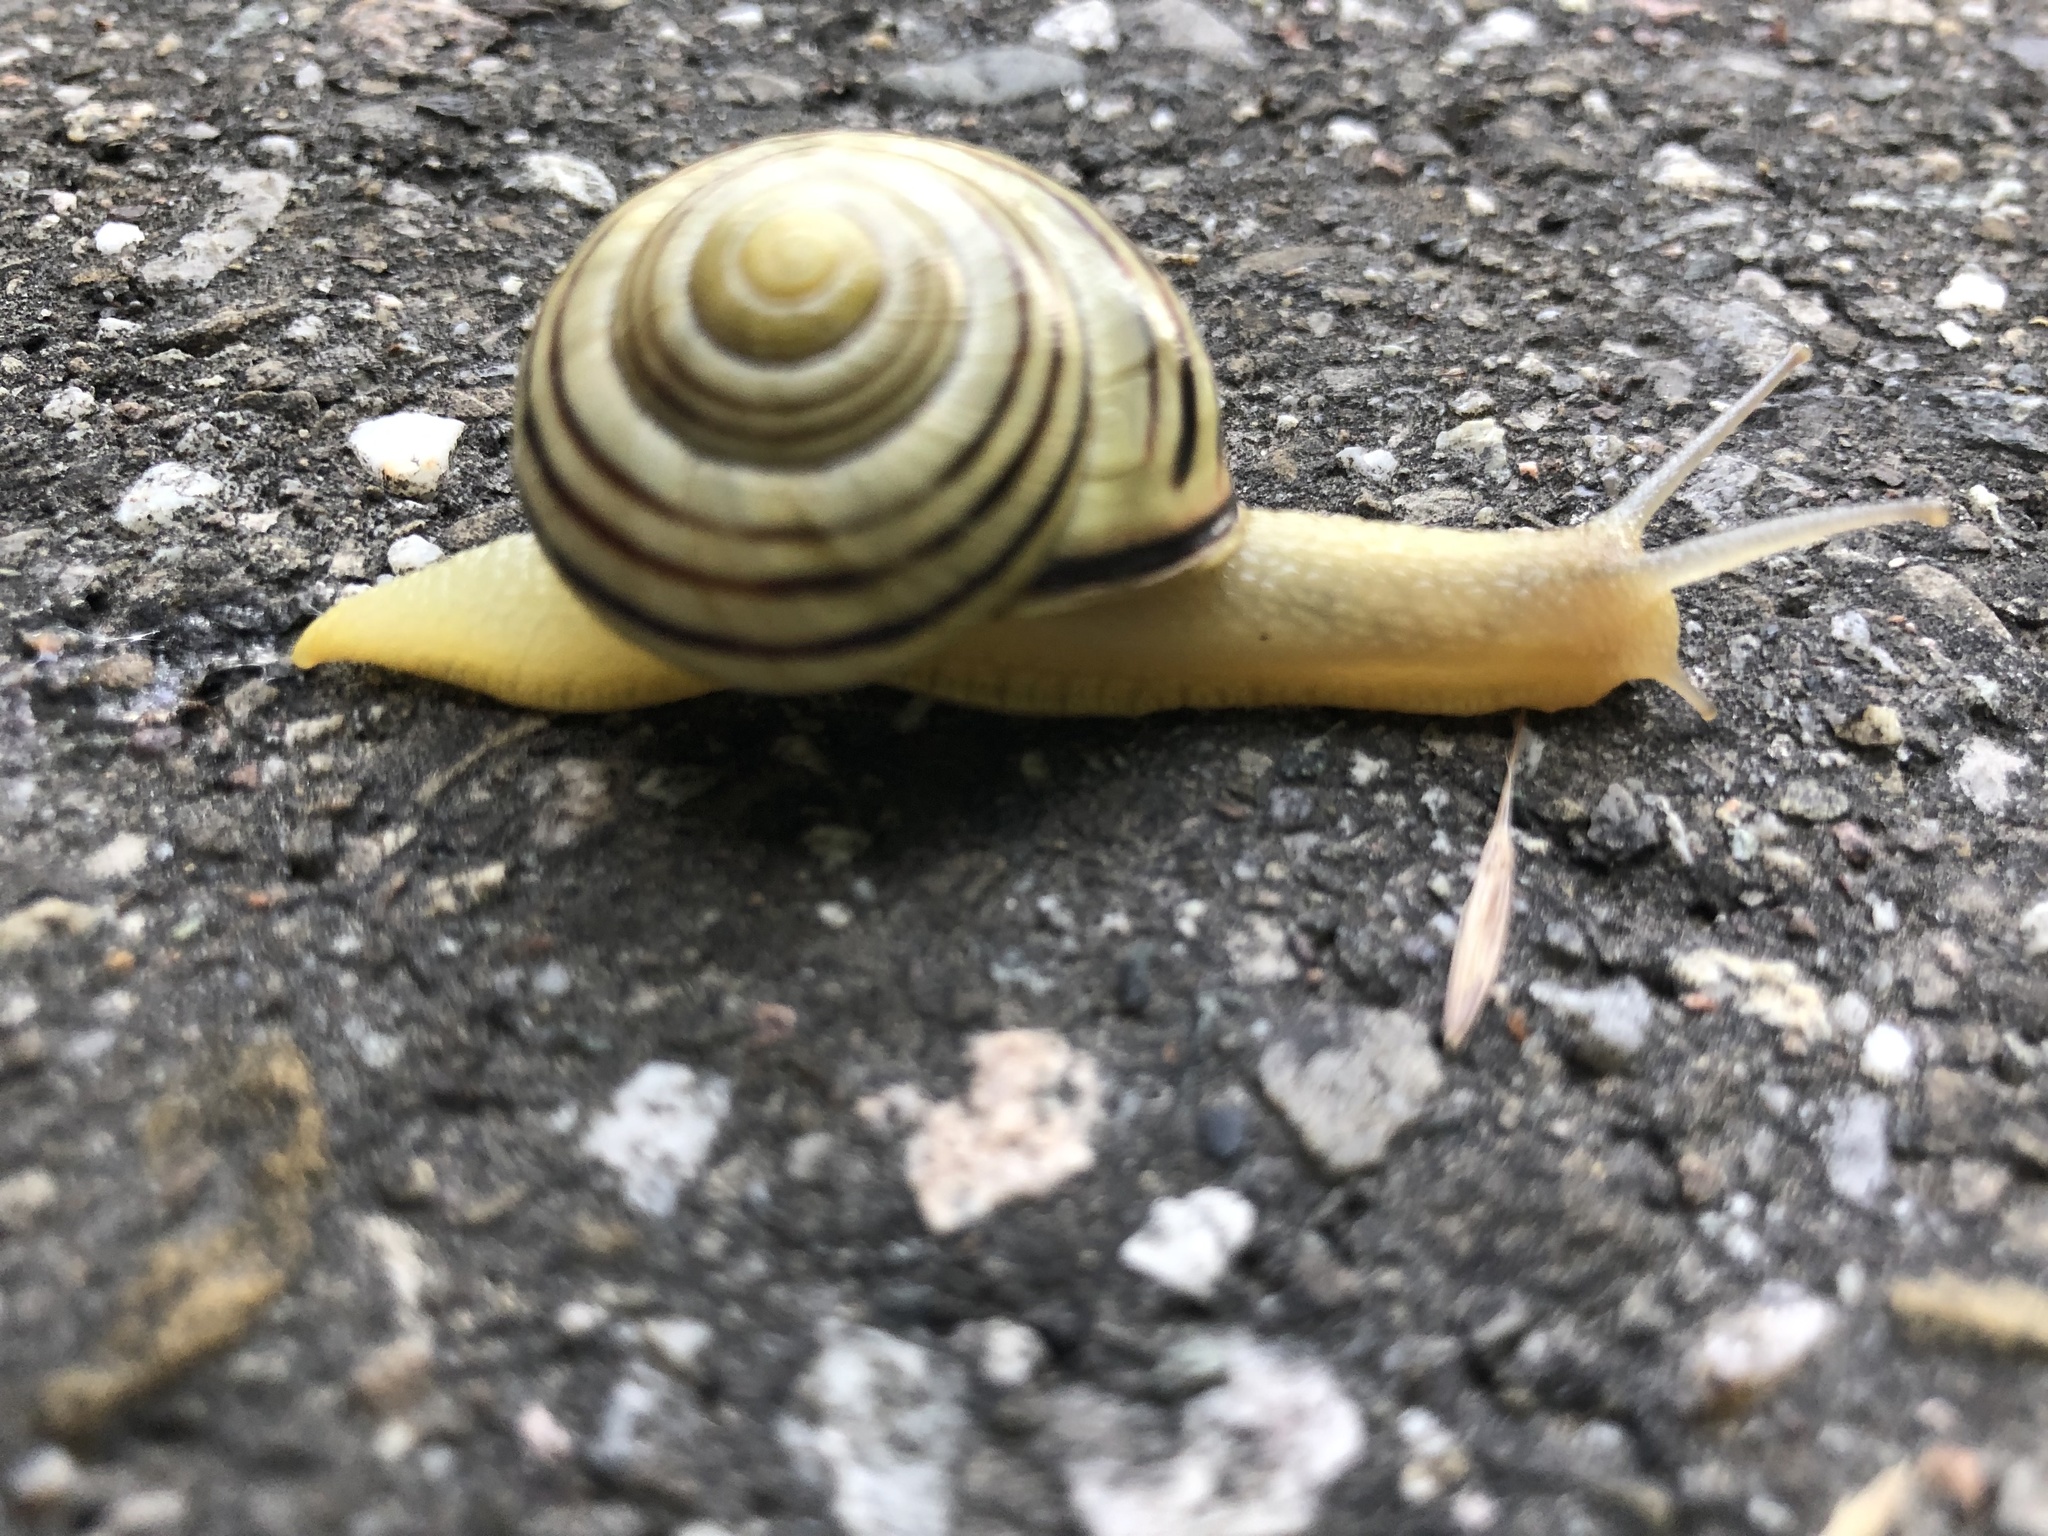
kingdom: Animalia
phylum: Mollusca
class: Gastropoda
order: Stylommatophora
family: Helicidae
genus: Cepaea
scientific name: Cepaea nemoralis
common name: Grovesnail
